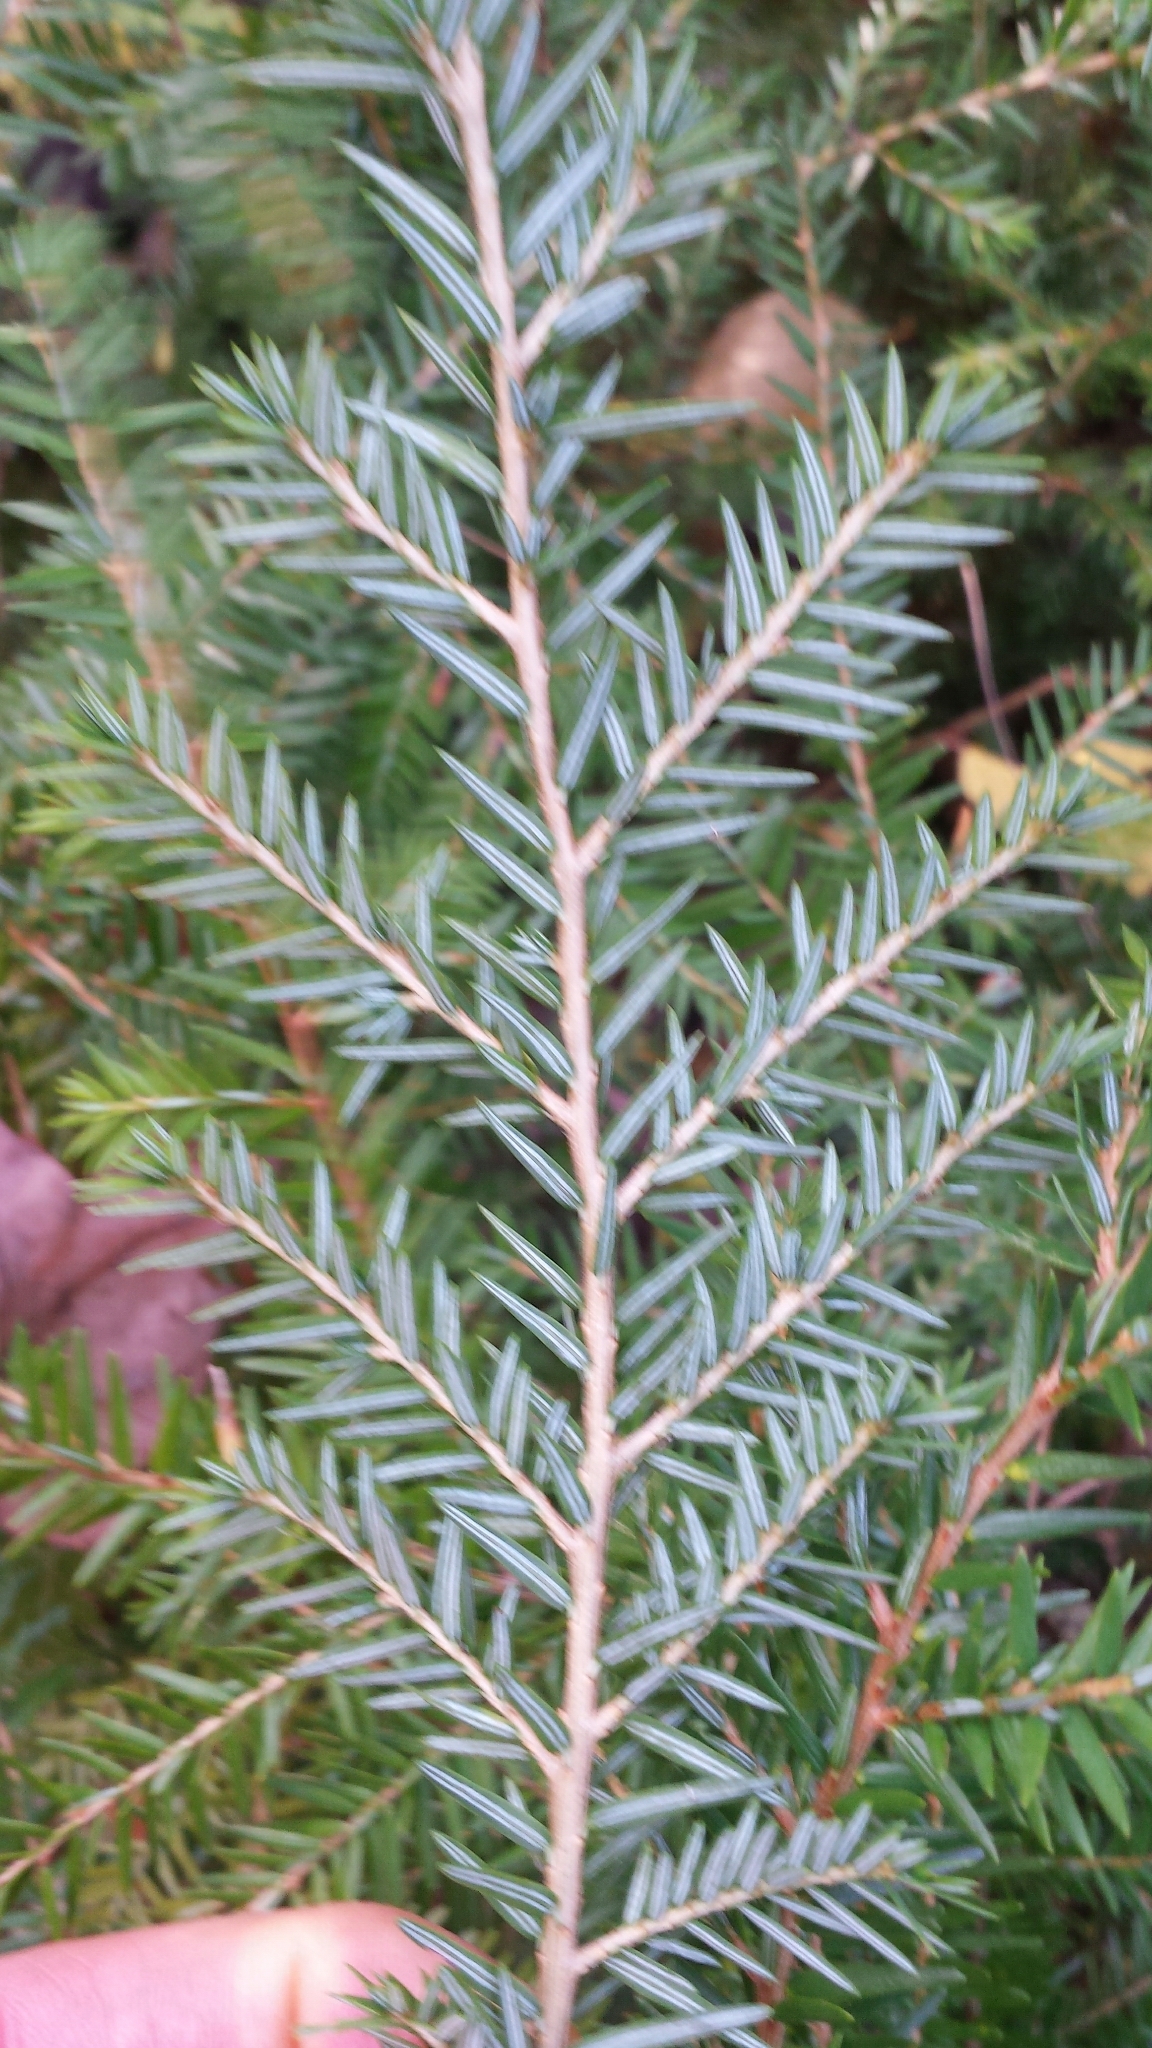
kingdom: Plantae
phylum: Tracheophyta
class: Pinopsida
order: Pinales
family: Pinaceae
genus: Tsuga
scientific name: Tsuga canadensis
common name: Eastern hemlock
